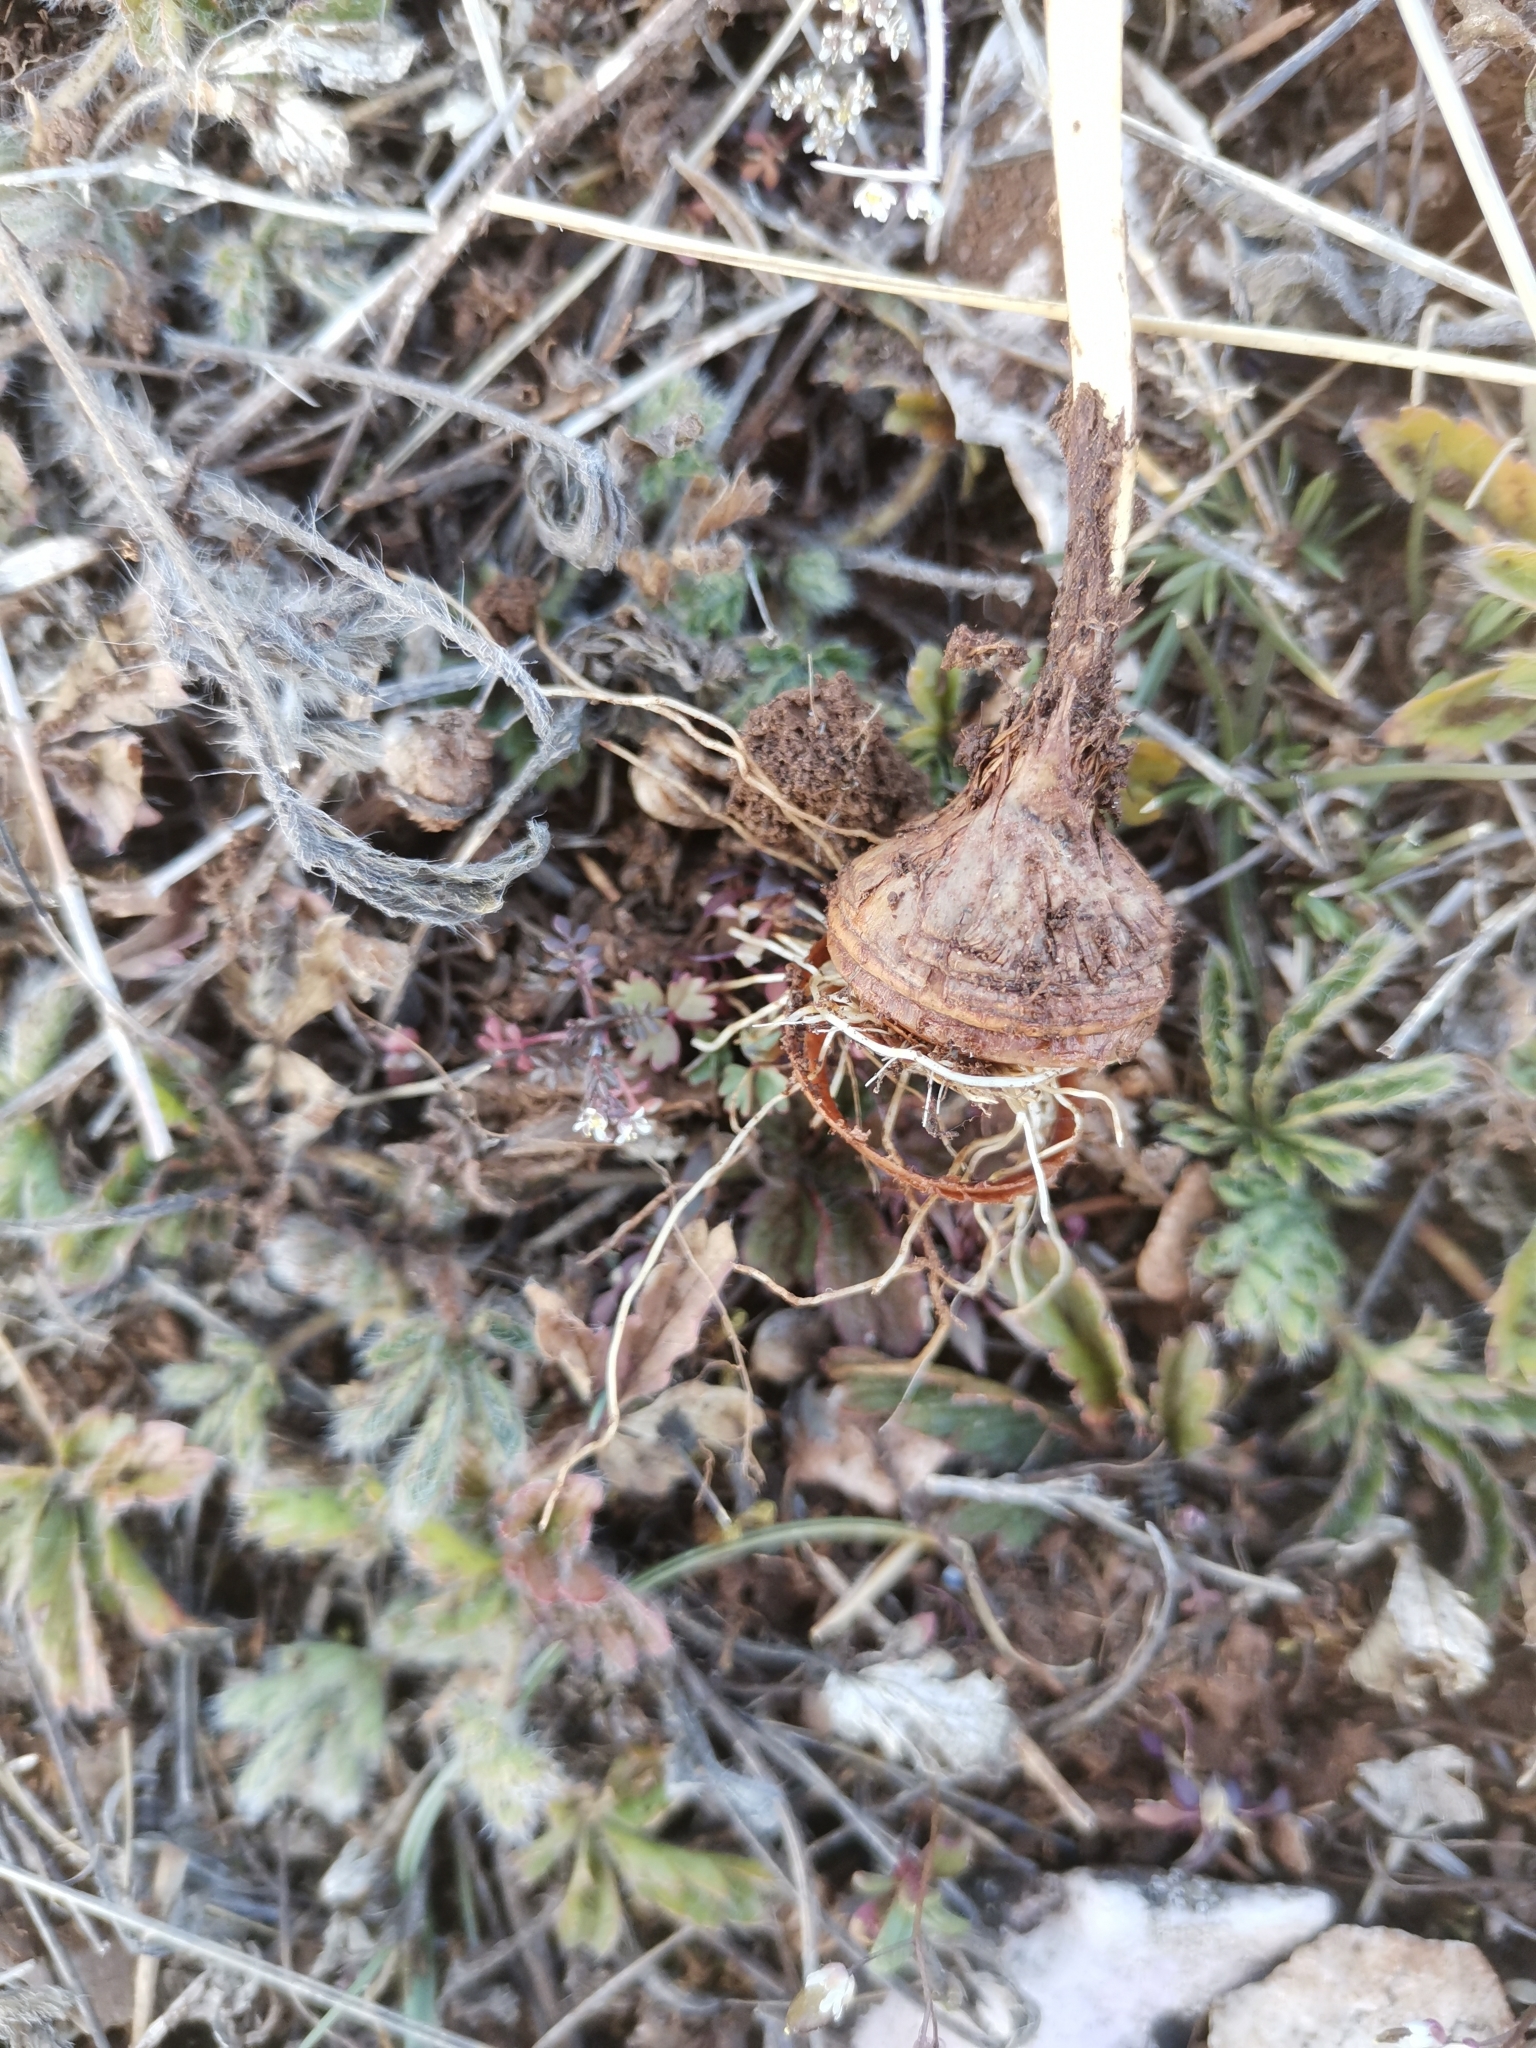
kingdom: Plantae
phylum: Tracheophyta
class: Liliopsida
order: Asparagales
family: Iridaceae
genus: Crocus
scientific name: Crocus weldenii
